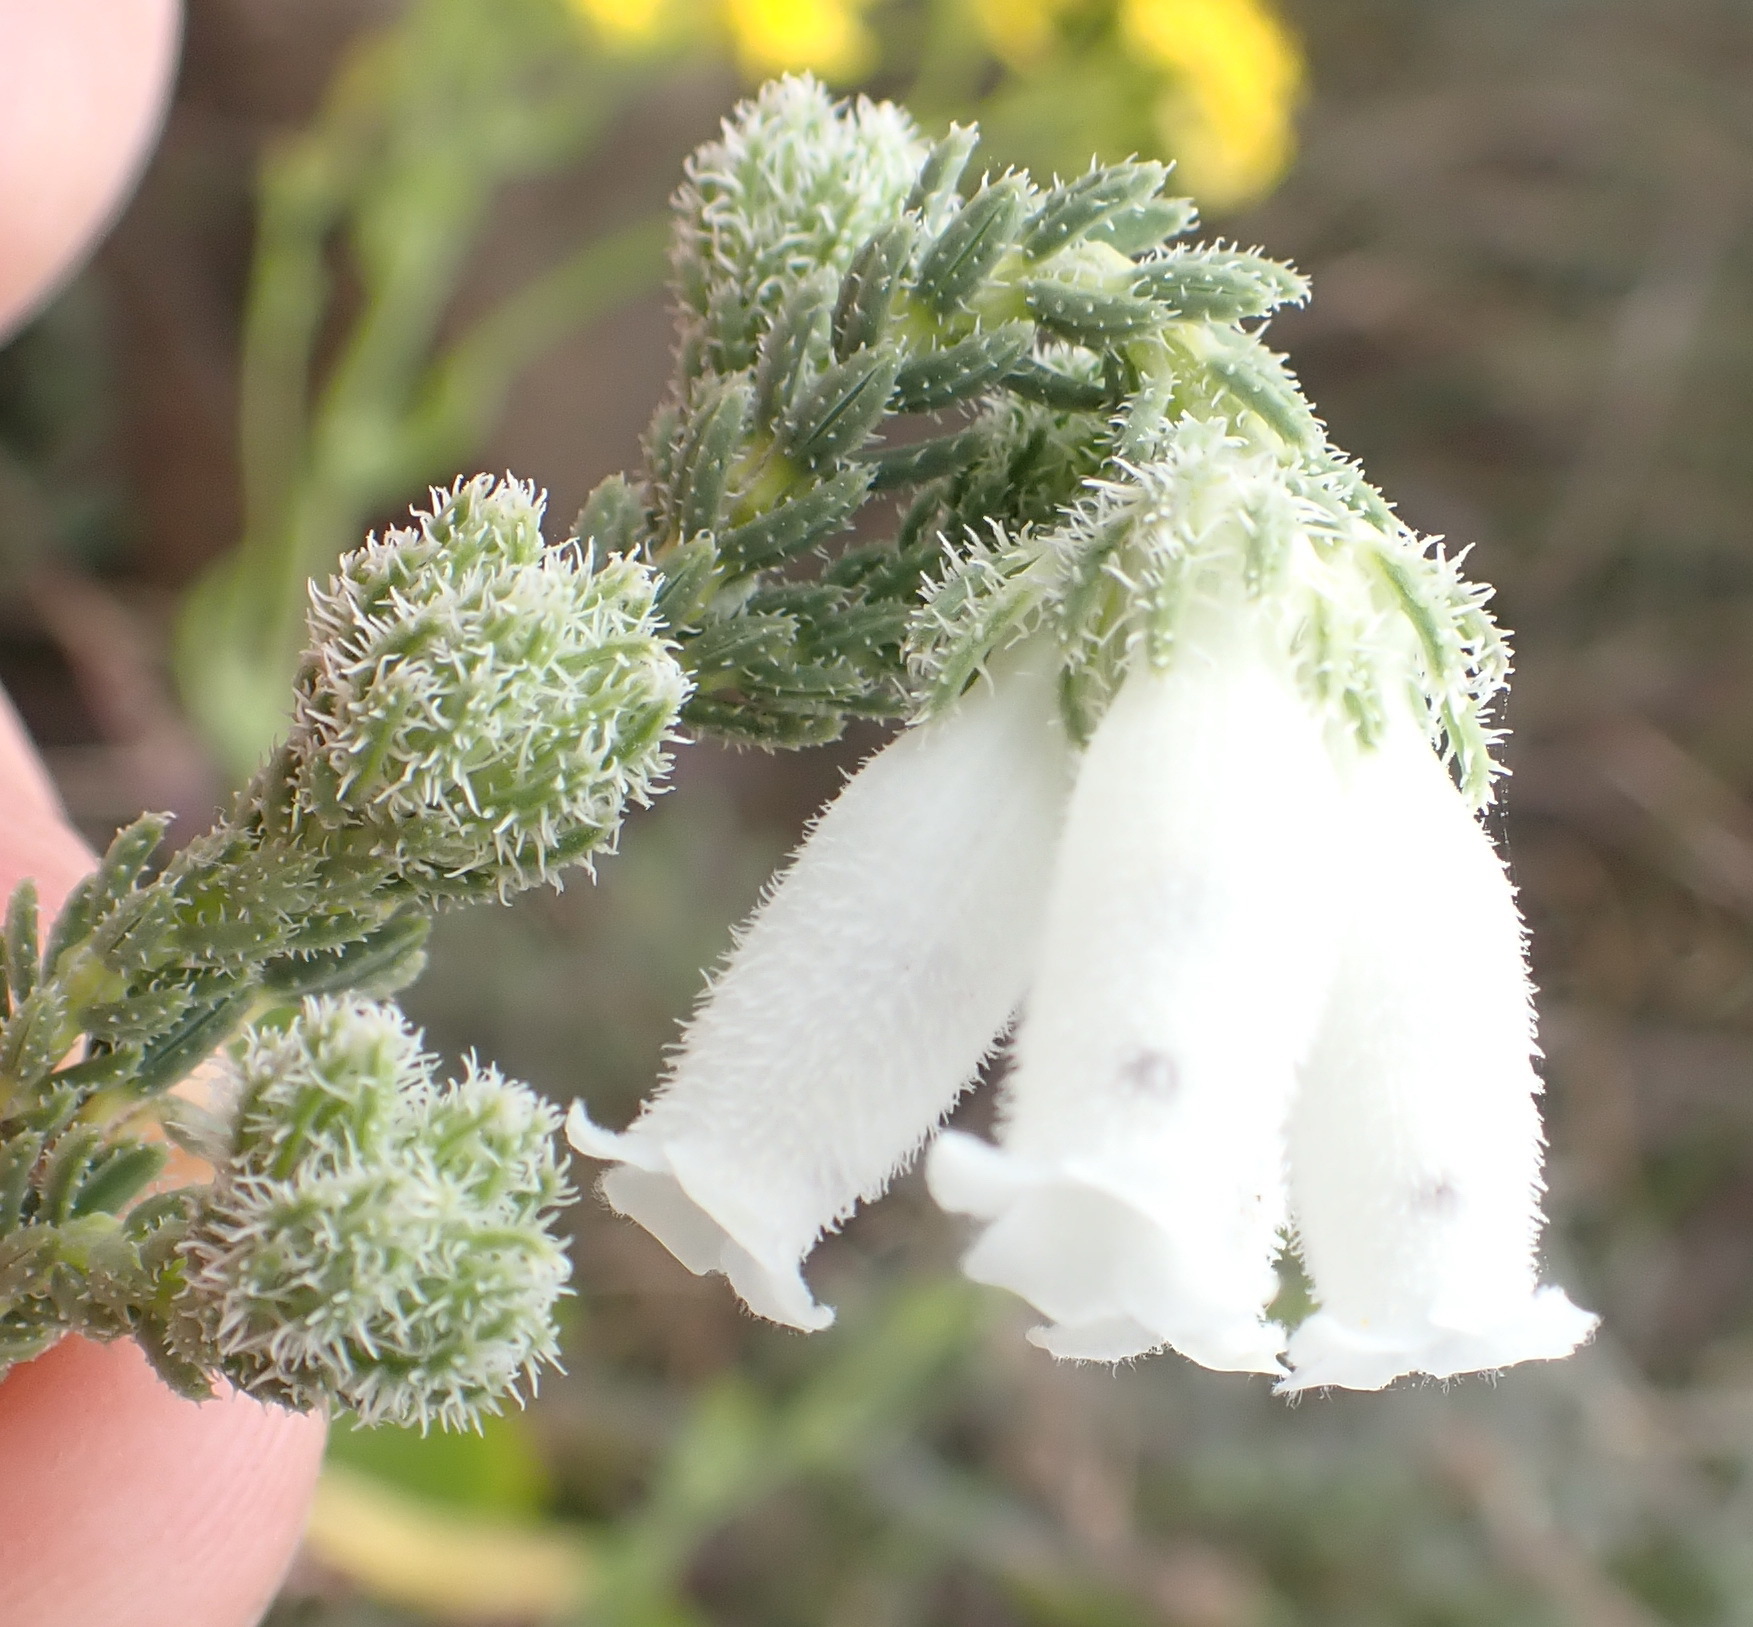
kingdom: Plantae
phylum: Tracheophyta
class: Magnoliopsida
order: Ericales
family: Ericaceae
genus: Erica
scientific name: Erica strigilifolia
